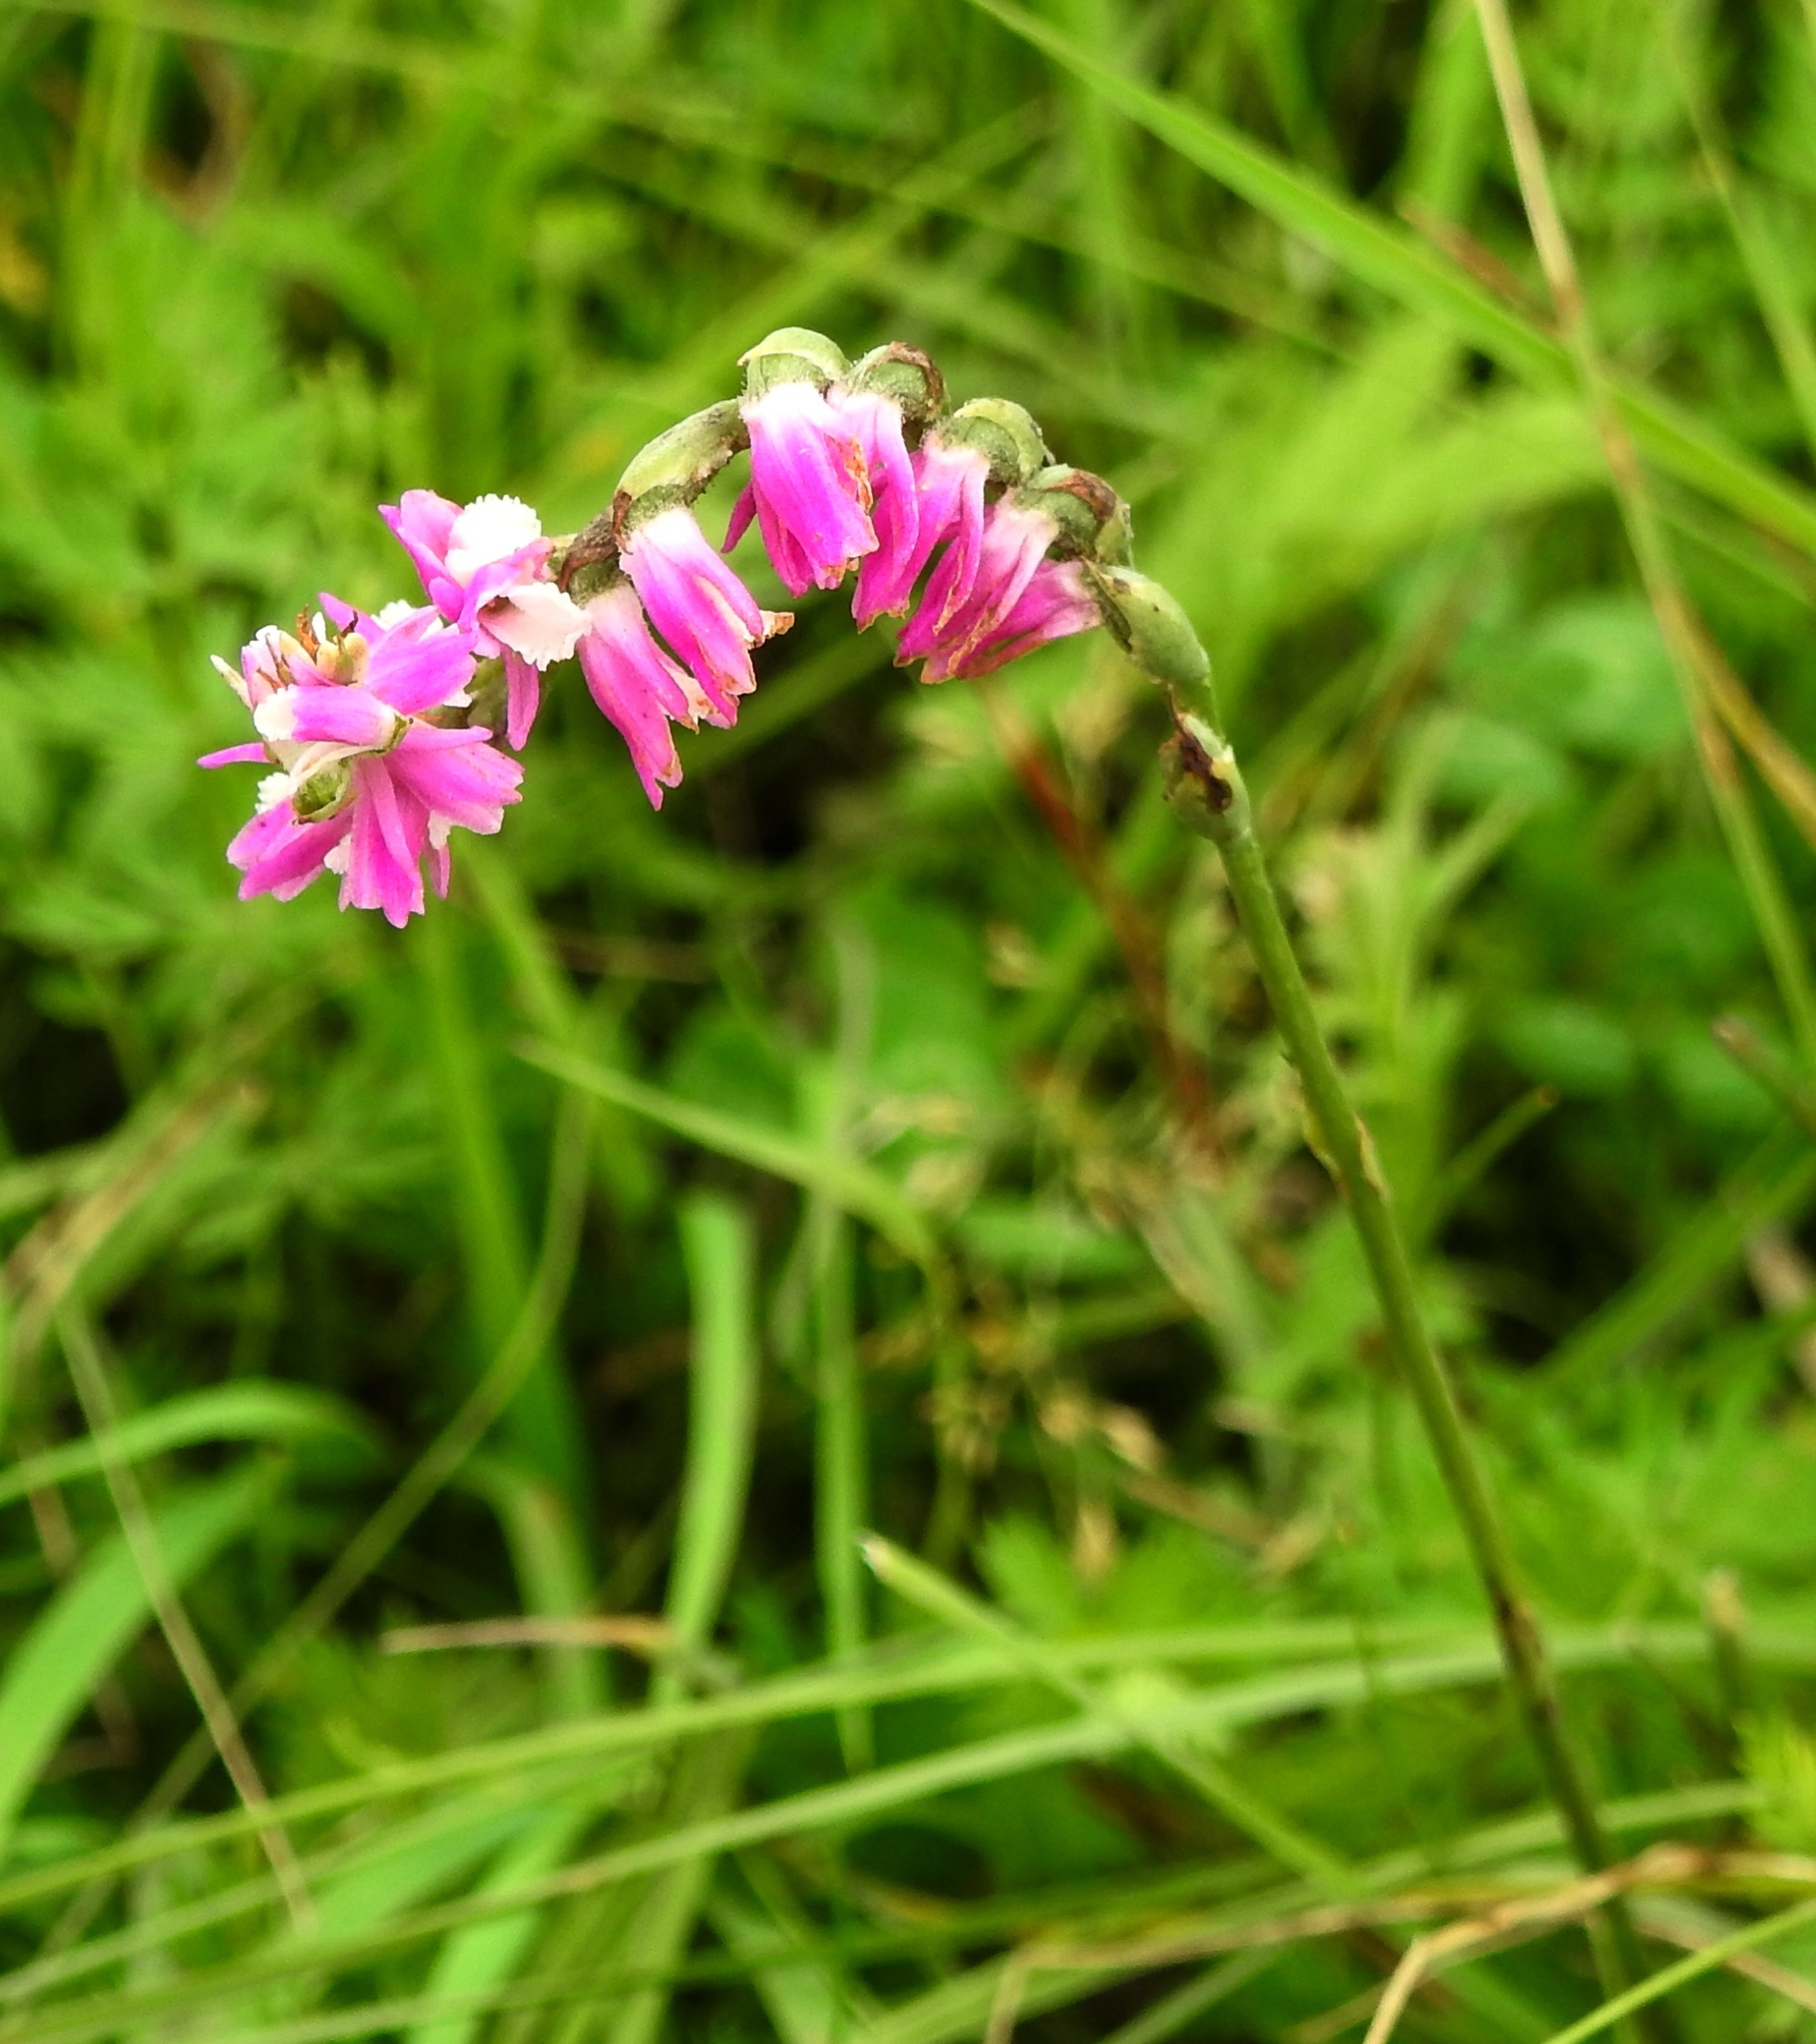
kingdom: Plantae
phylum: Tracheophyta
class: Liliopsida
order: Asparagales
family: Orchidaceae
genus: Spiranthes
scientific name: Spiranthes australis
